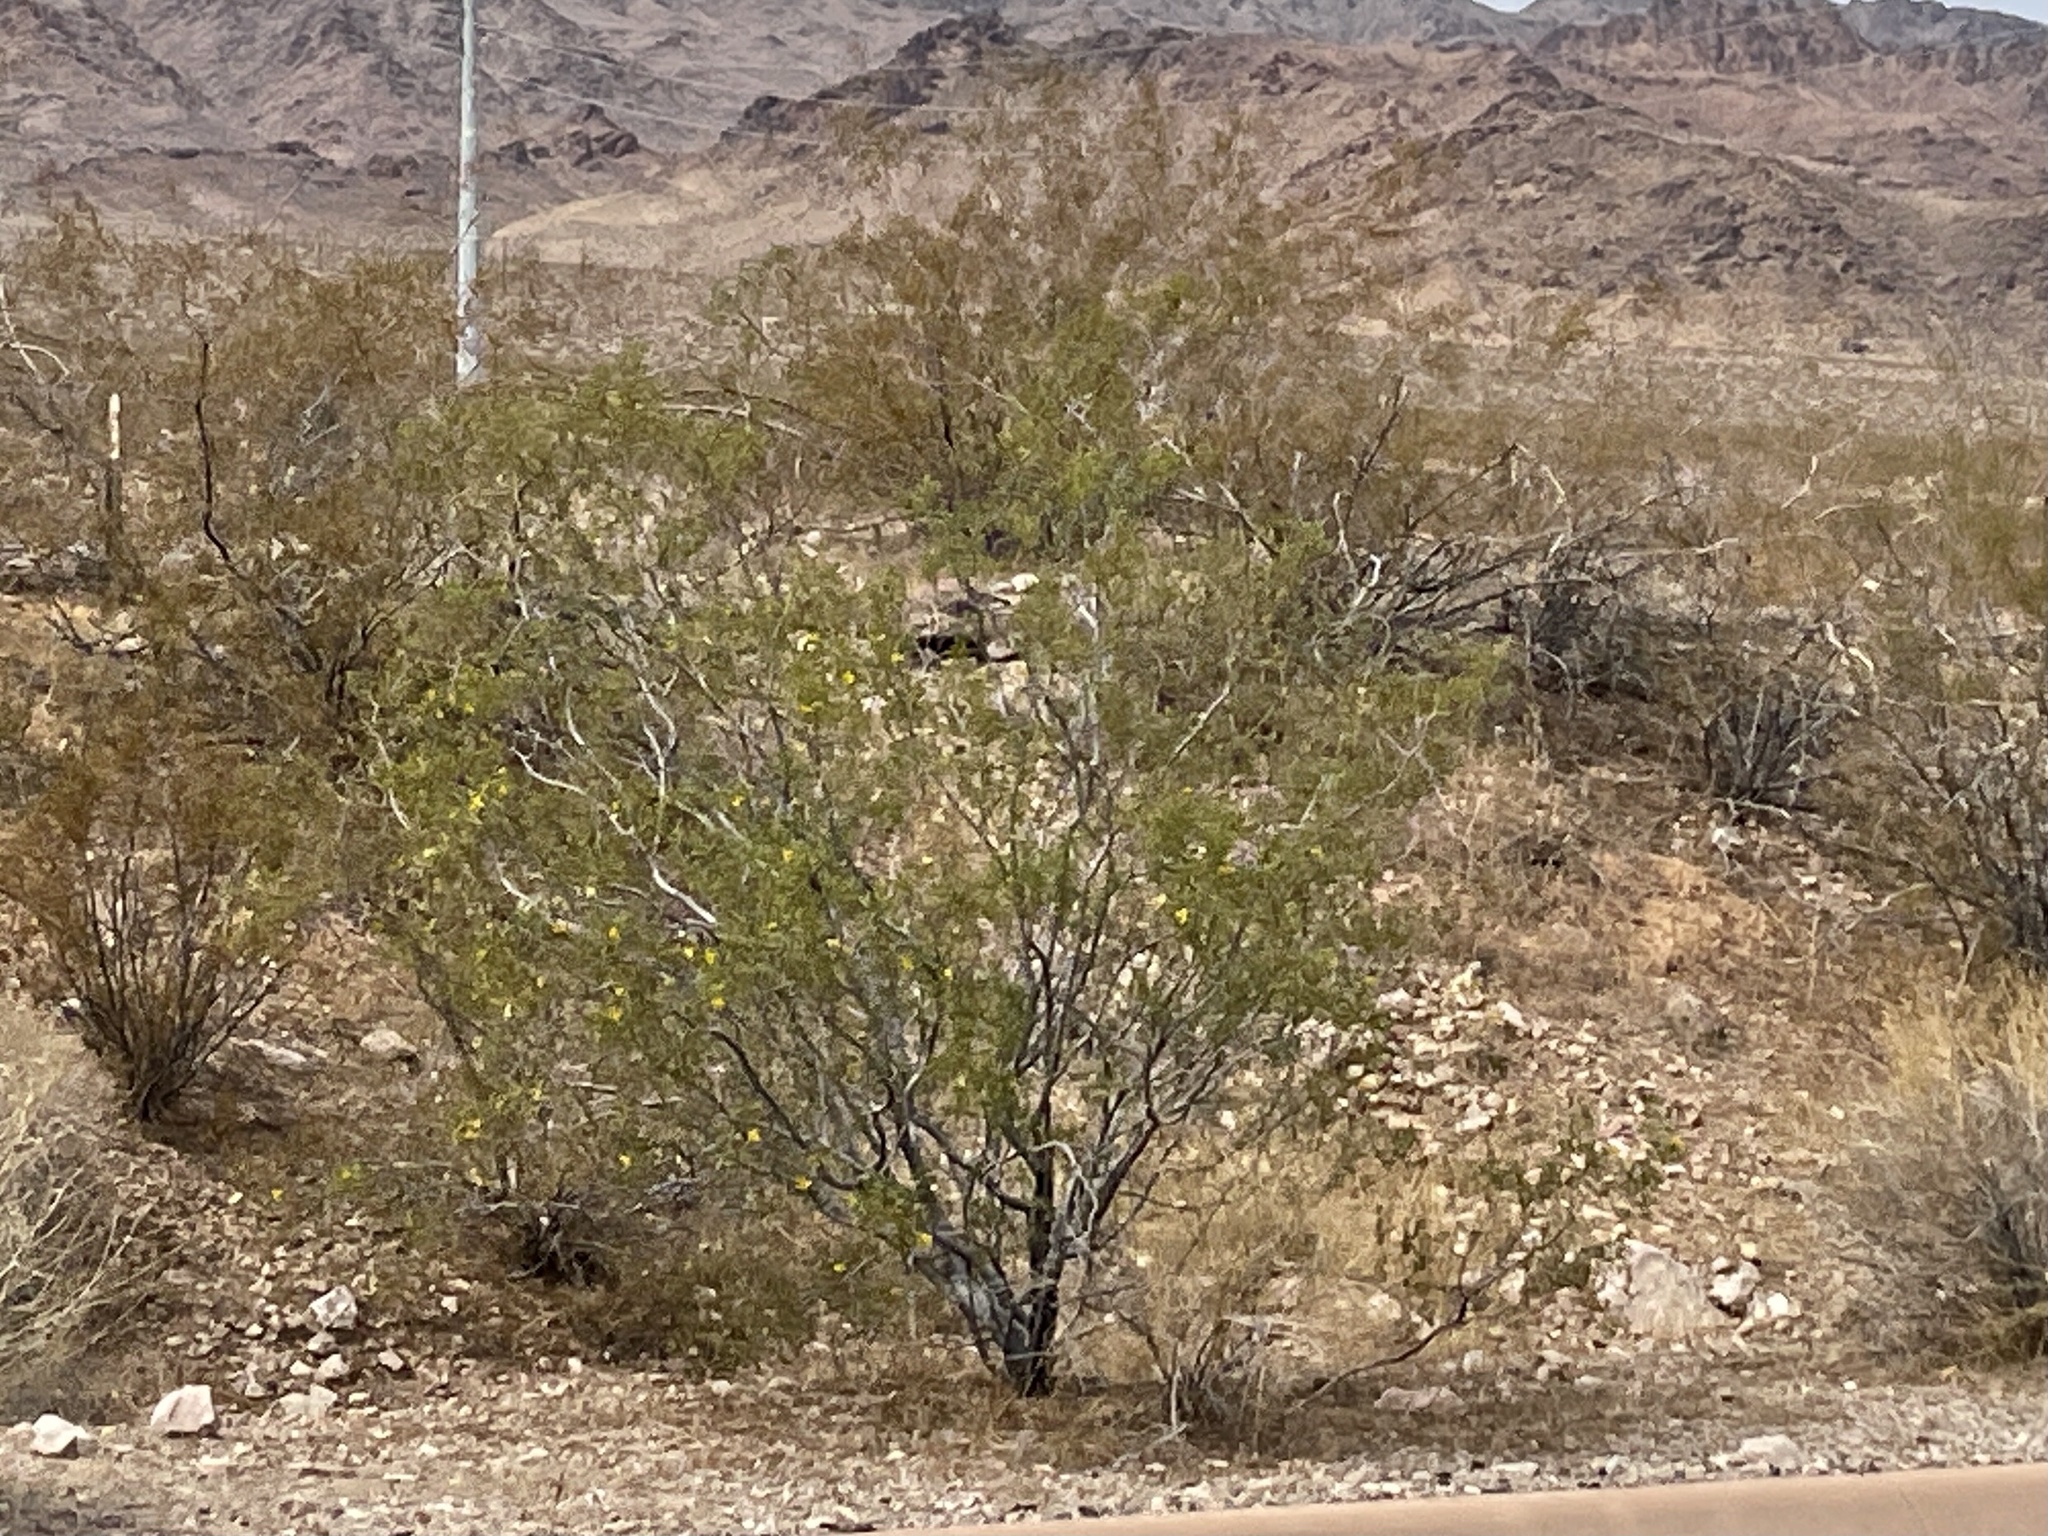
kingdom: Plantae
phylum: Tracheophyta
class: Magnoliopsida
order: Zygophyllales
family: Zygophyllaceae
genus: Larrea
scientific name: Larrea tridentata
